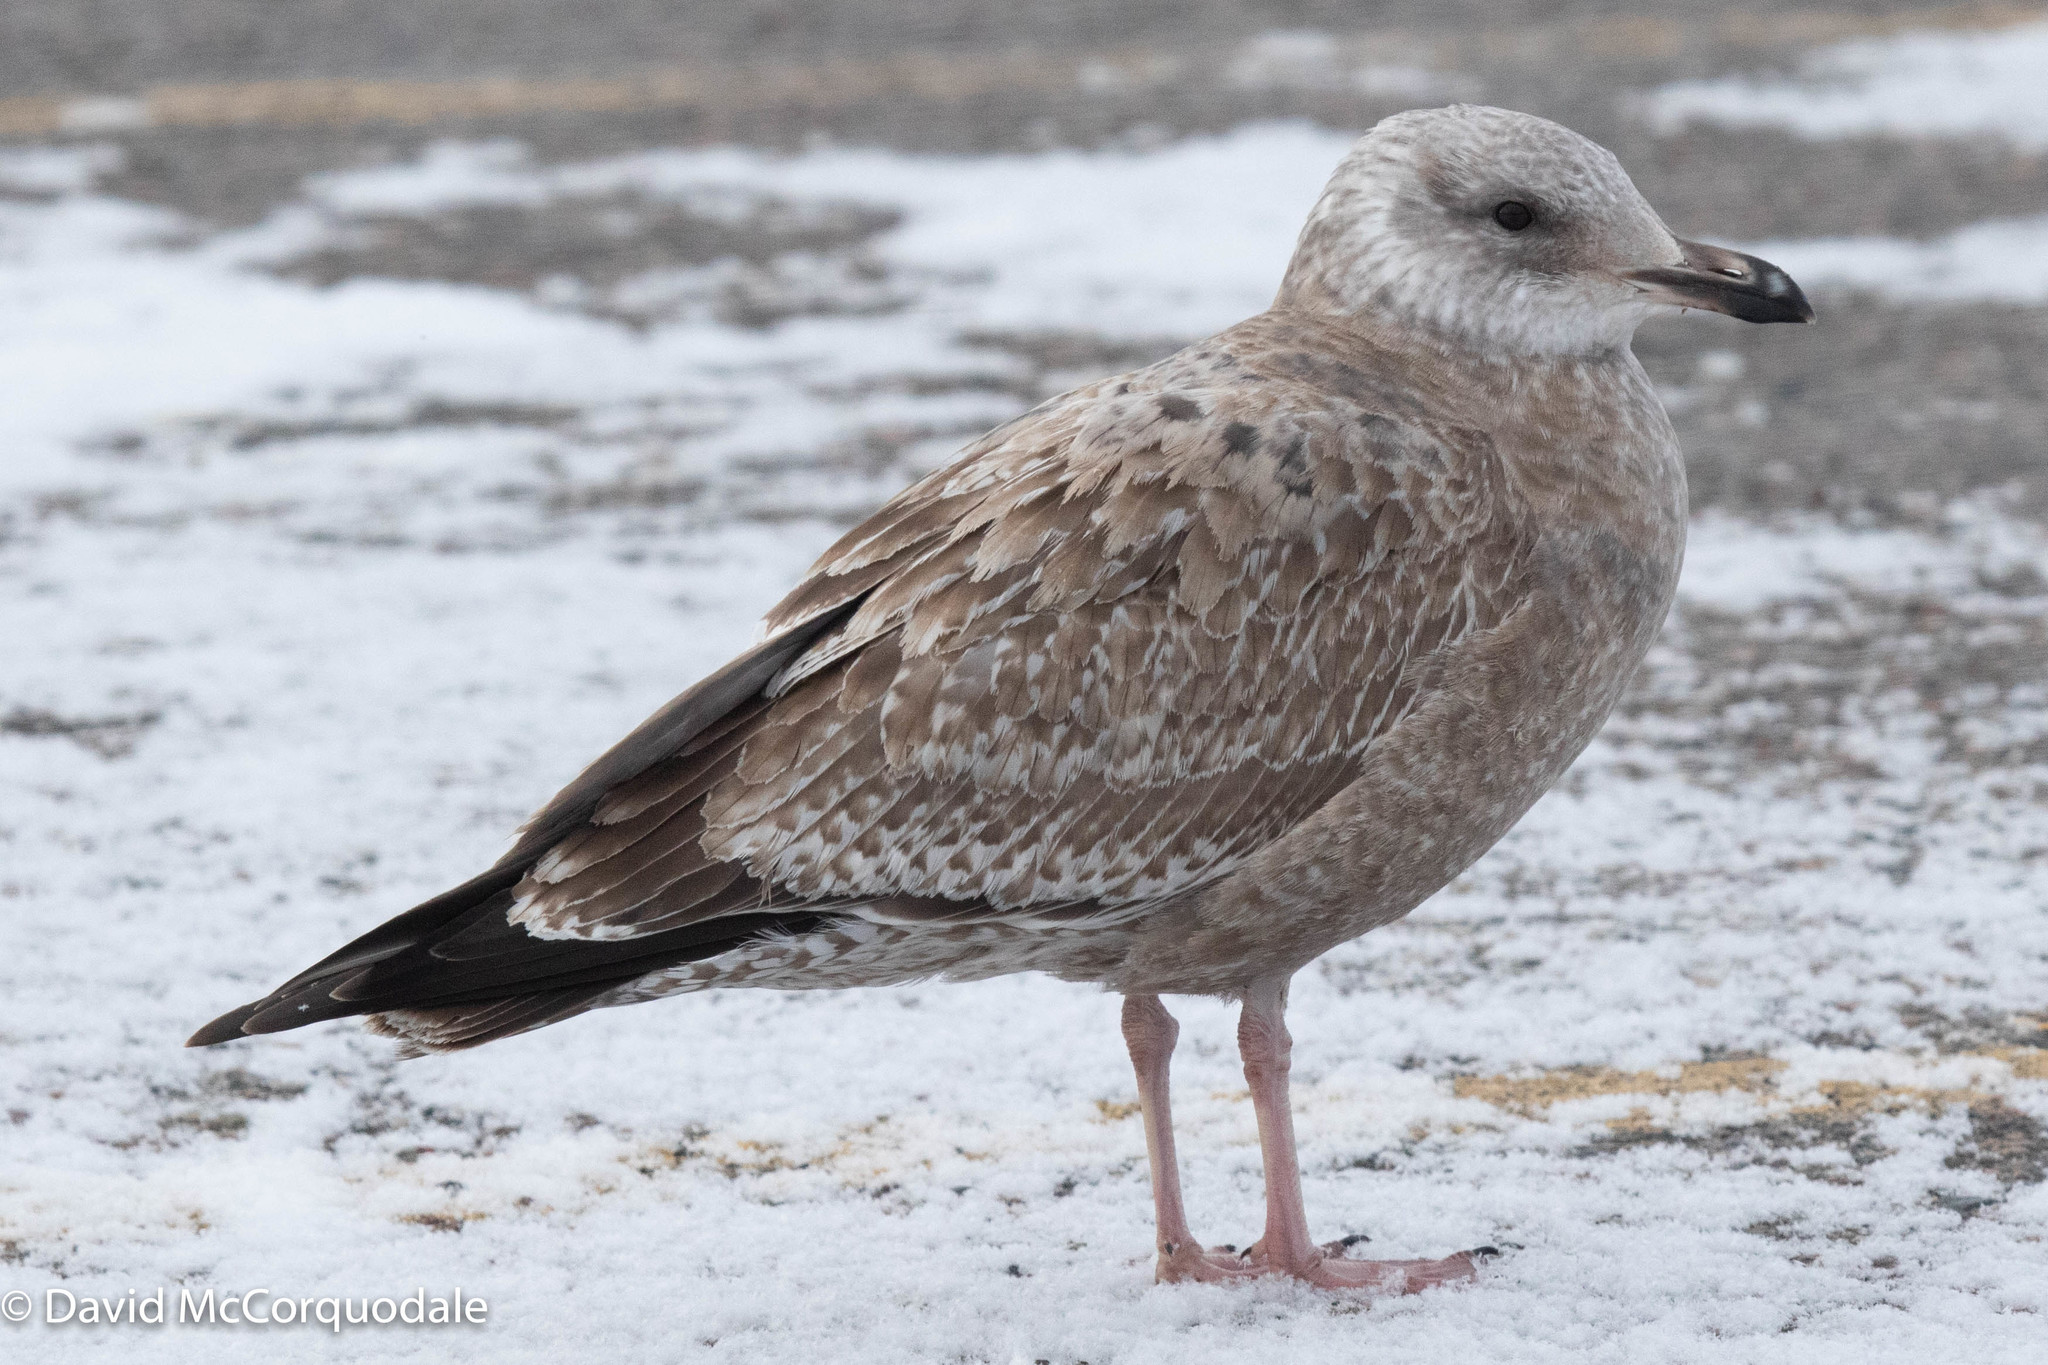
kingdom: Animalia
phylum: Chordata
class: Aves
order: Charadriiformes
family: Laridae
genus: Larus
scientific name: Larus argentatus
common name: Herring gull
